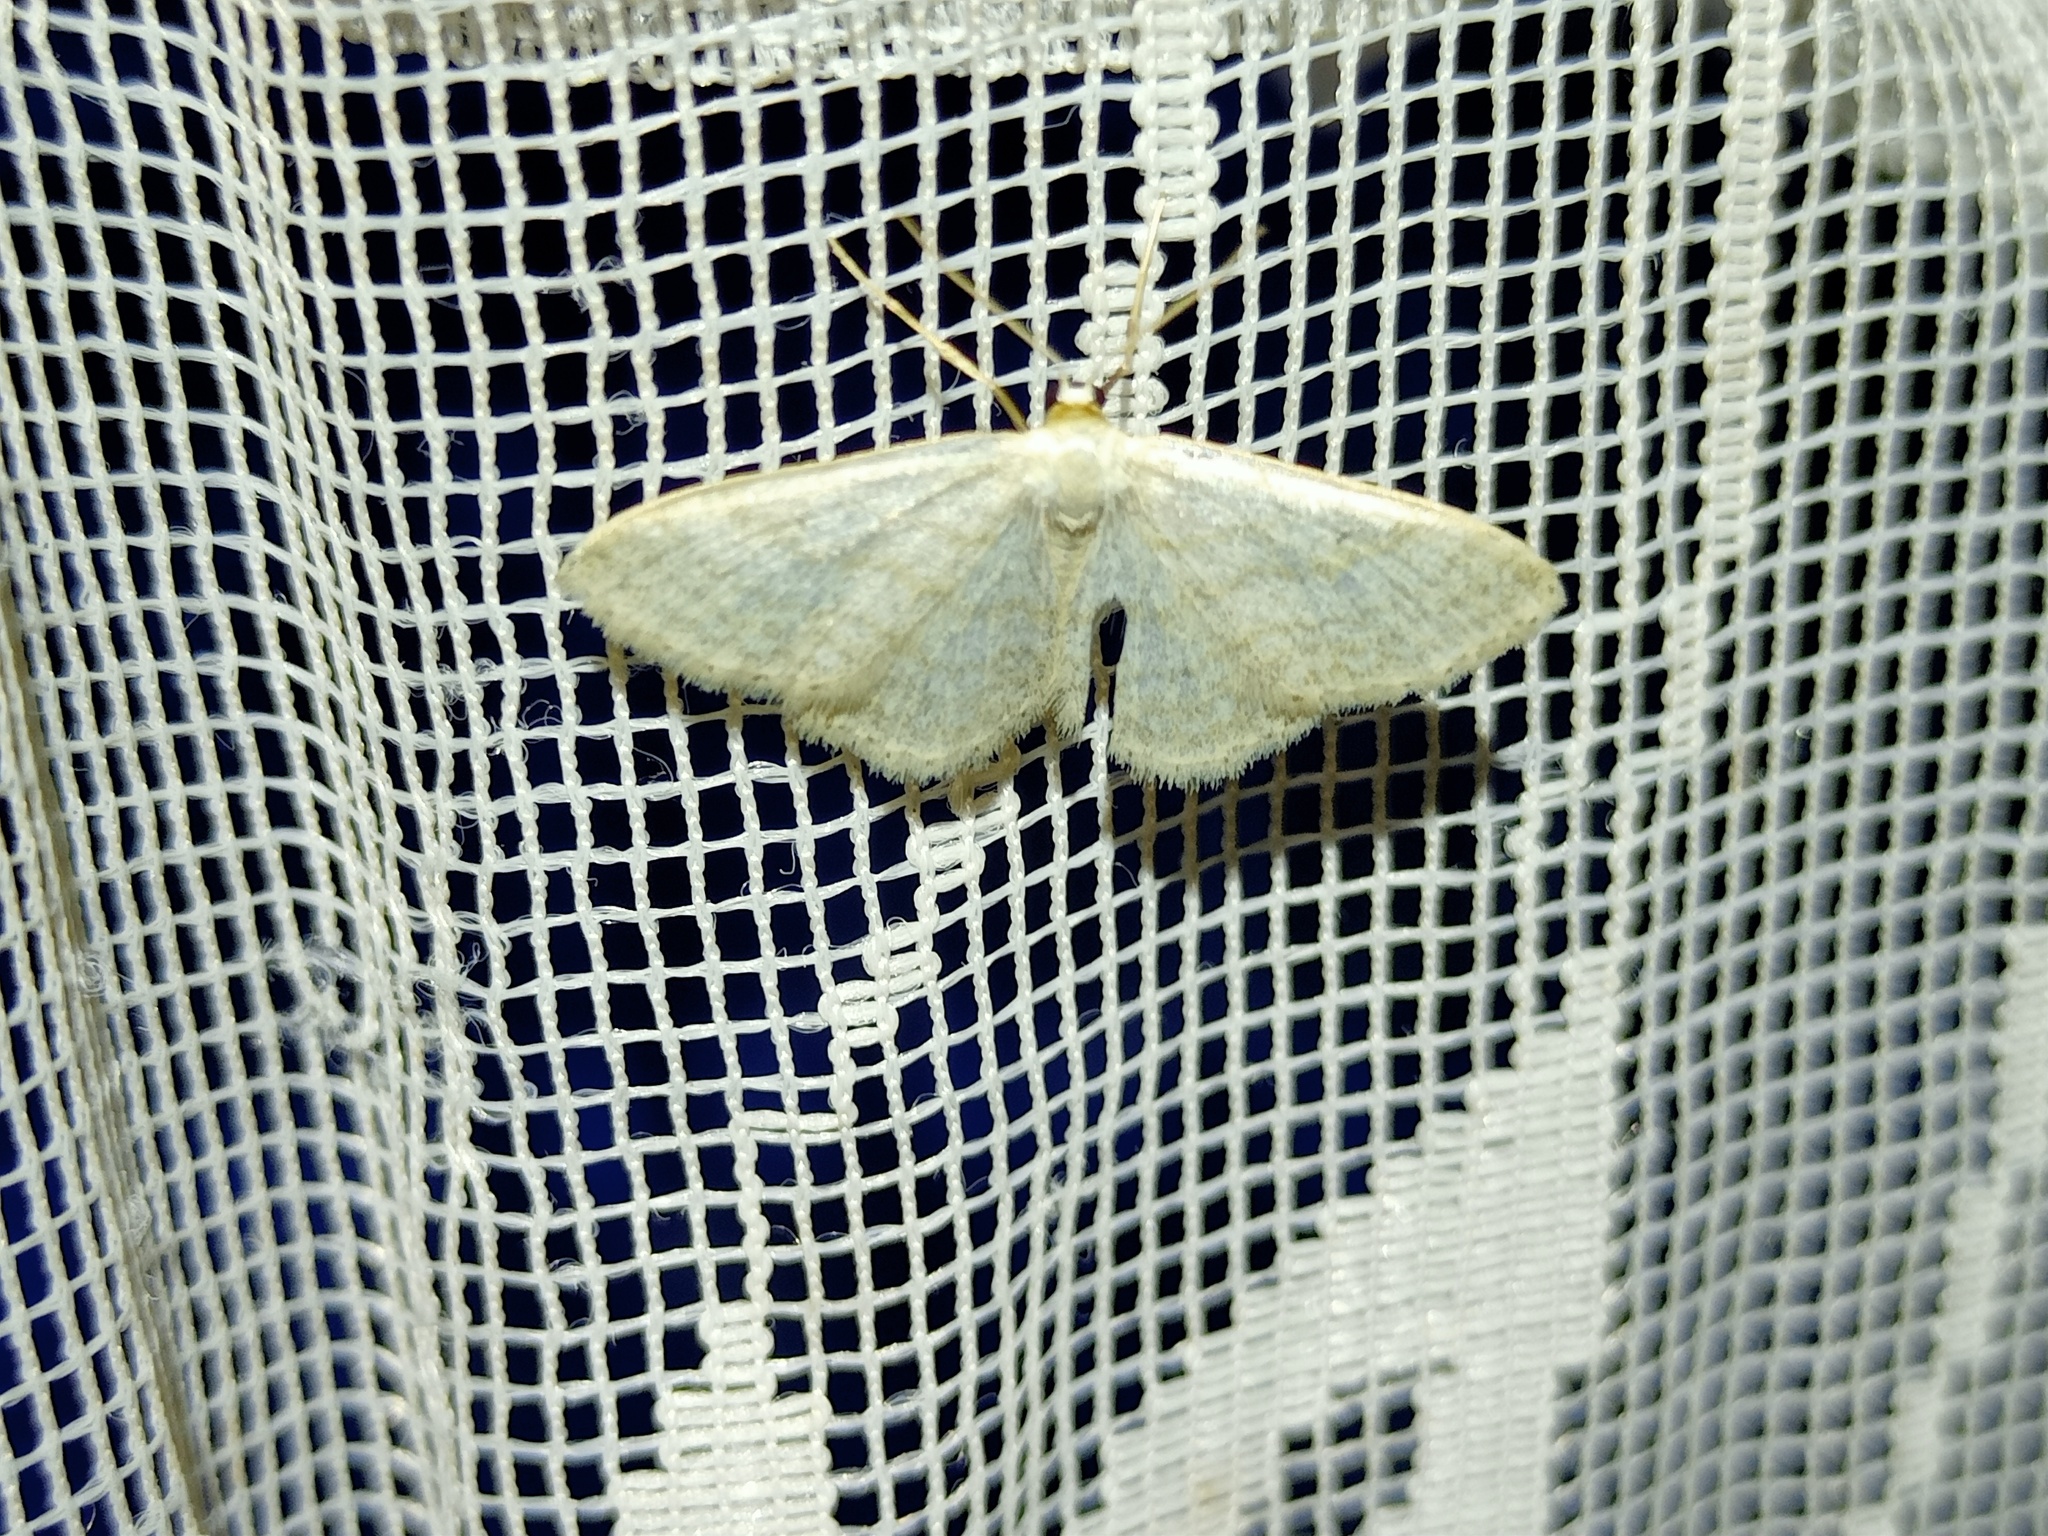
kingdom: Animalia
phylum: Arthropoda
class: Insecta
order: Lepidoptera
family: Geometridae
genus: Idaea
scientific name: Idaea subsericeata
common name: Satin wave
